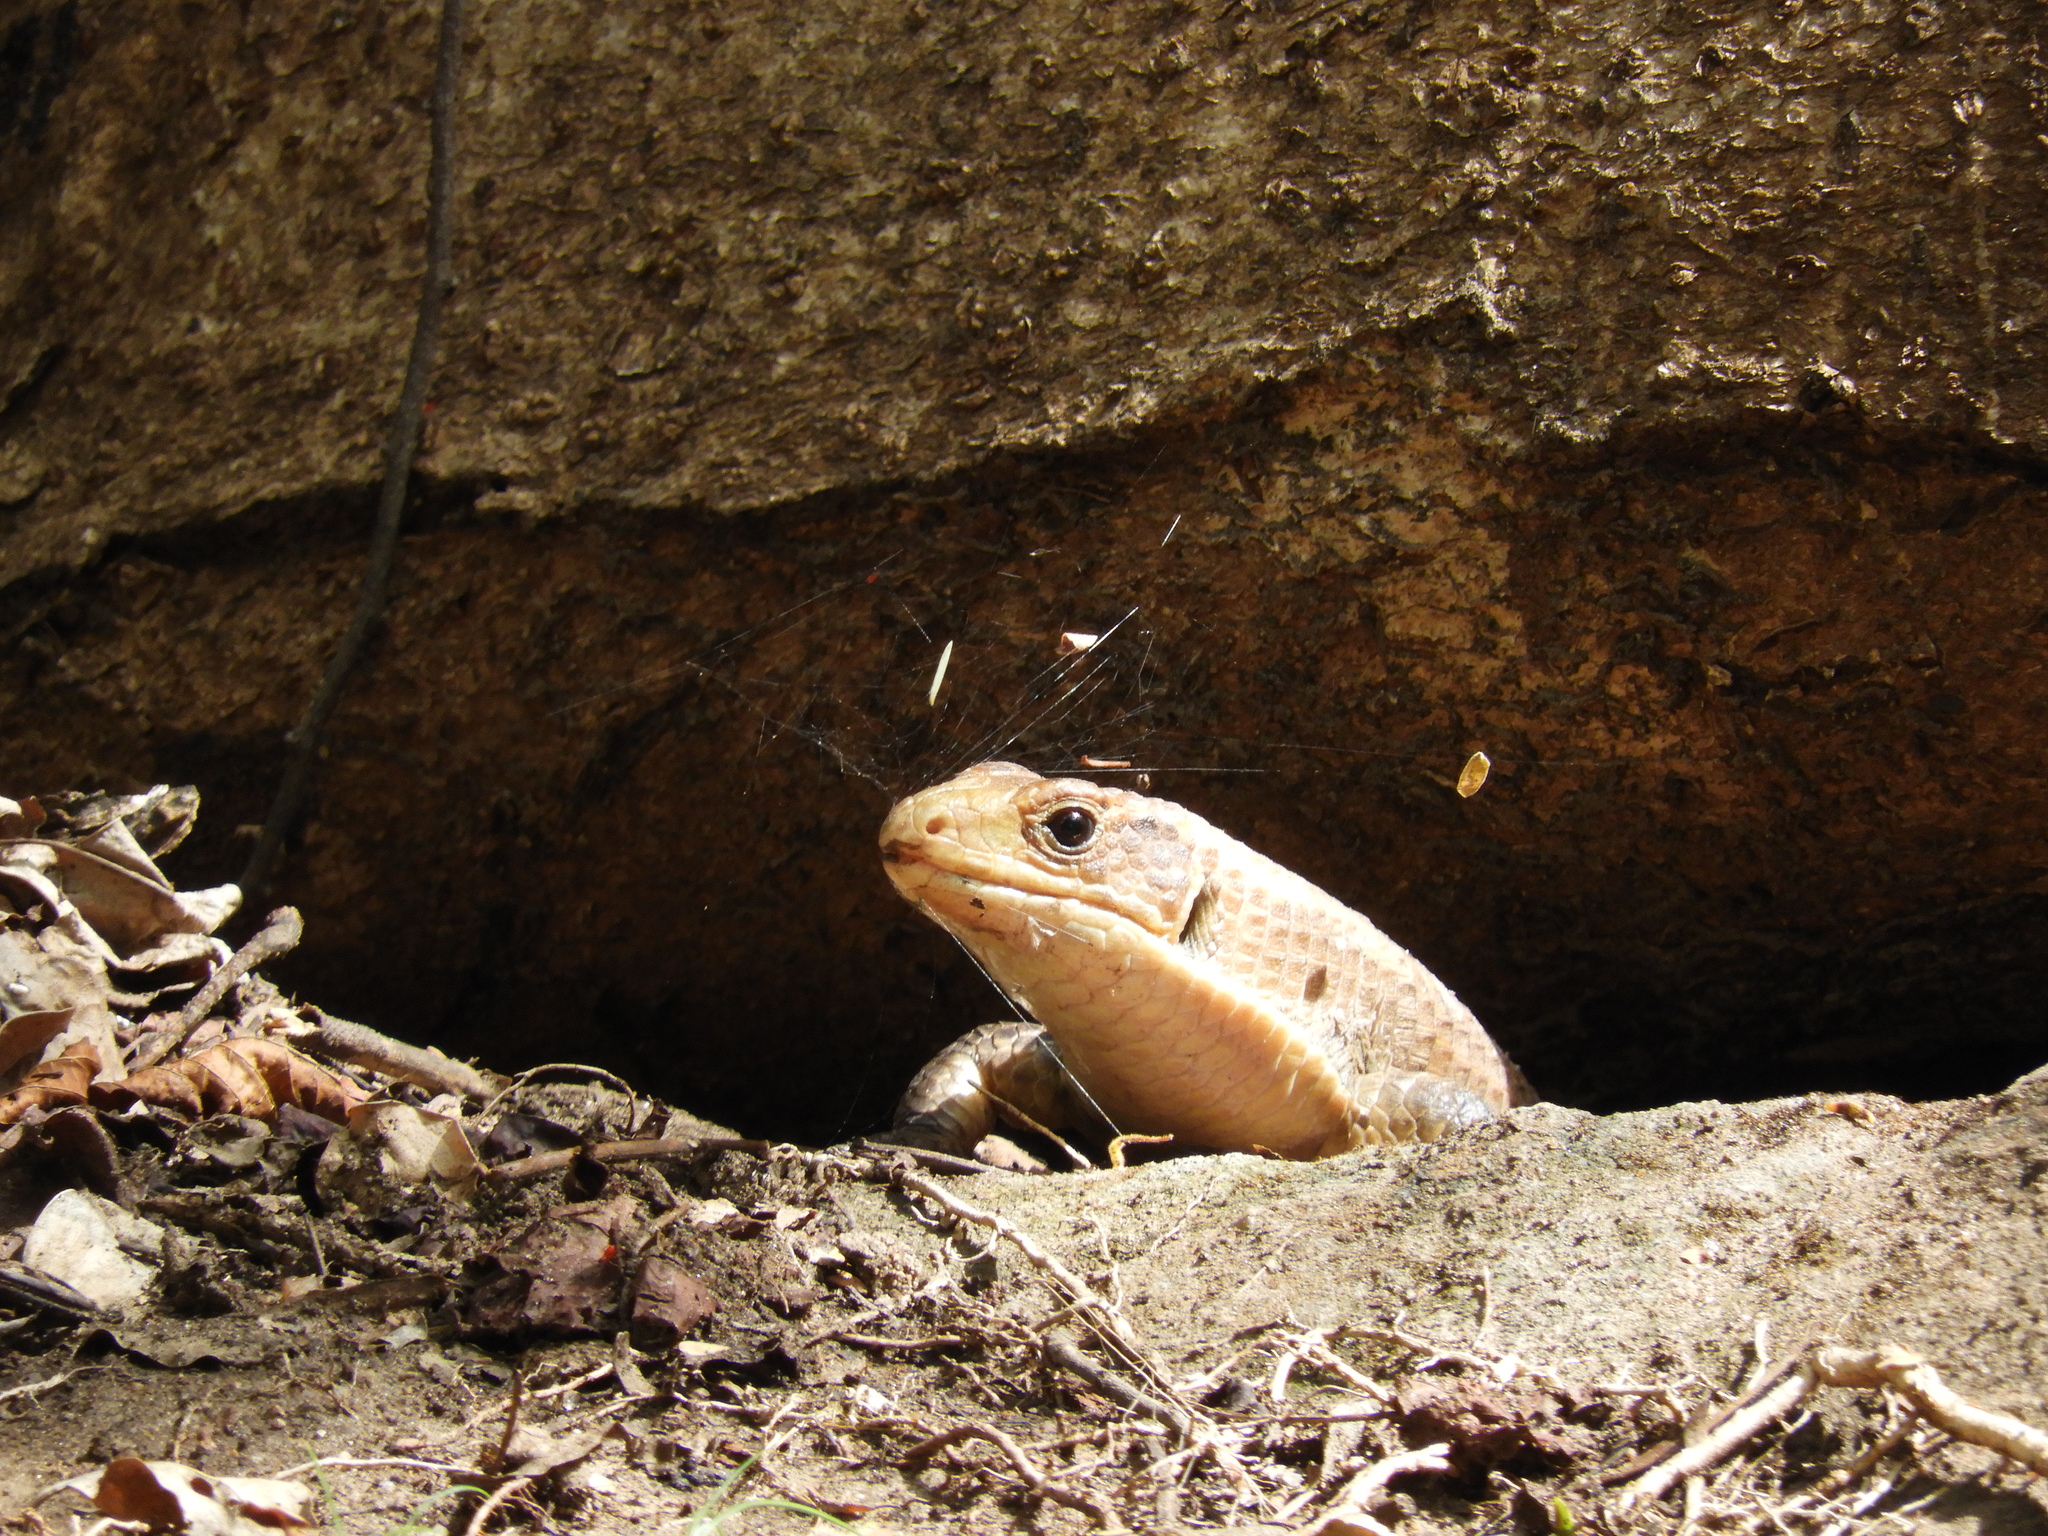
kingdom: Animalia
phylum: Chordata
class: Squamata
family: Gerrhosauridae
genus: Broadleysaurus
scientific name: Broadleysaurus major
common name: Rough-scaled plated lizard
